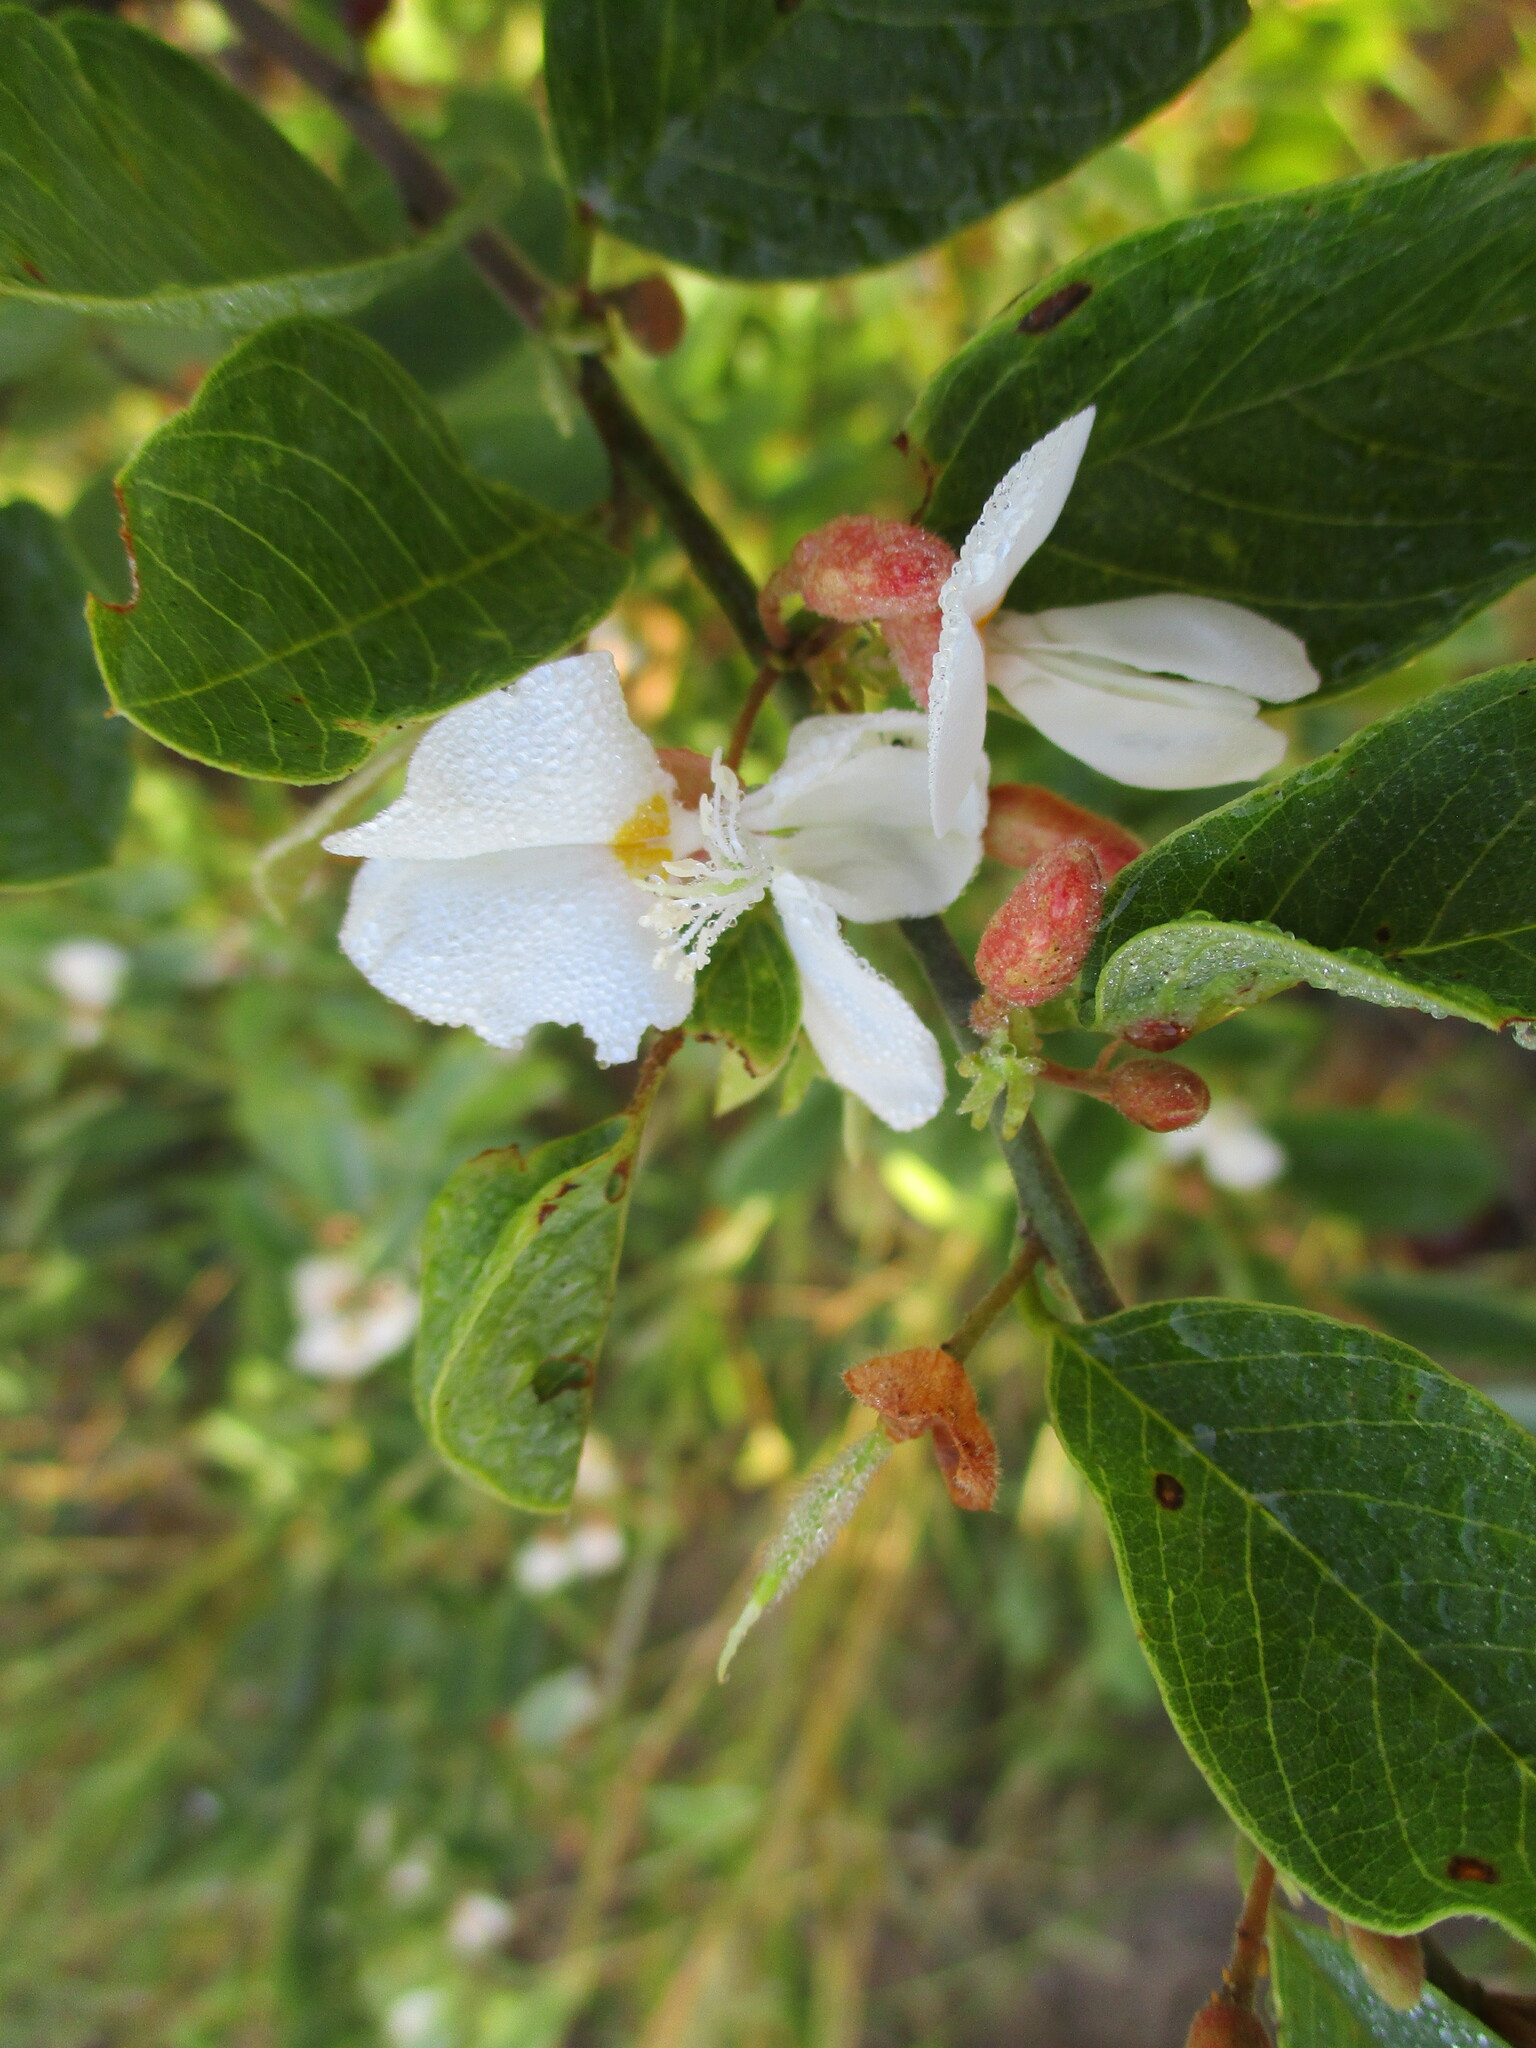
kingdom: Plantae
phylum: Tracheophyta
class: Magnoliopsida
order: Fabales
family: Fabaceae
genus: Baphia
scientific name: Baphia massaiensis
